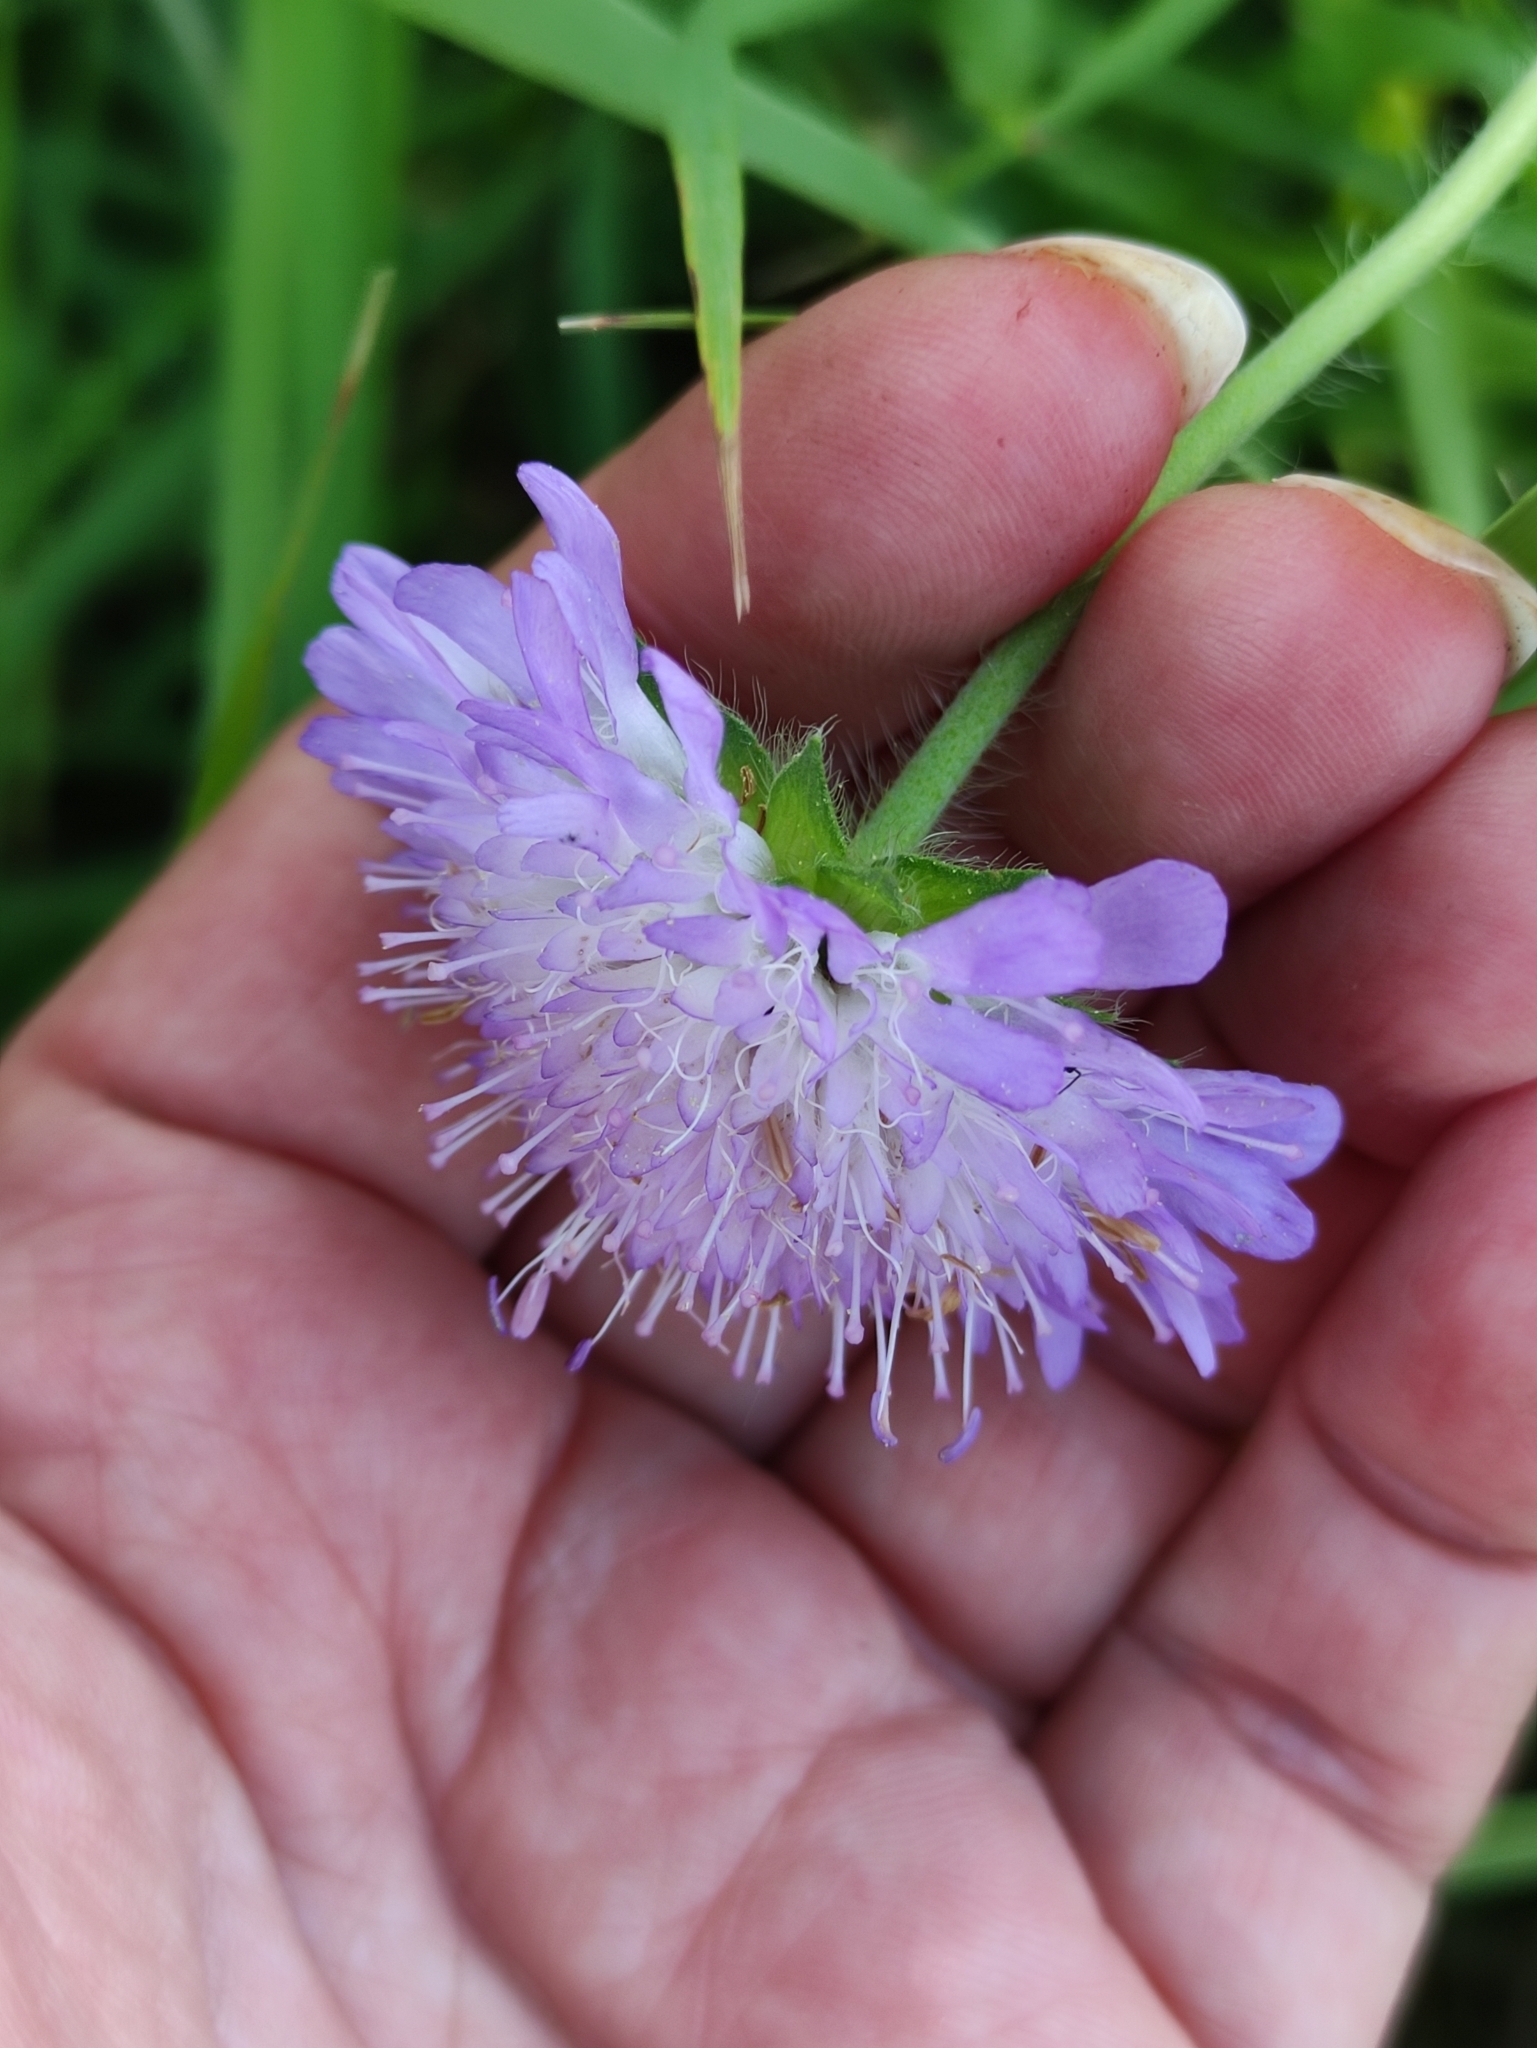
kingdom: Plantae
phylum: Tracheophyta
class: Magnoliopsida
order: Dipsacales
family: Caprifoliaceae
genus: Knautia
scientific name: Knautia arvensis
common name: Field scabiosa
